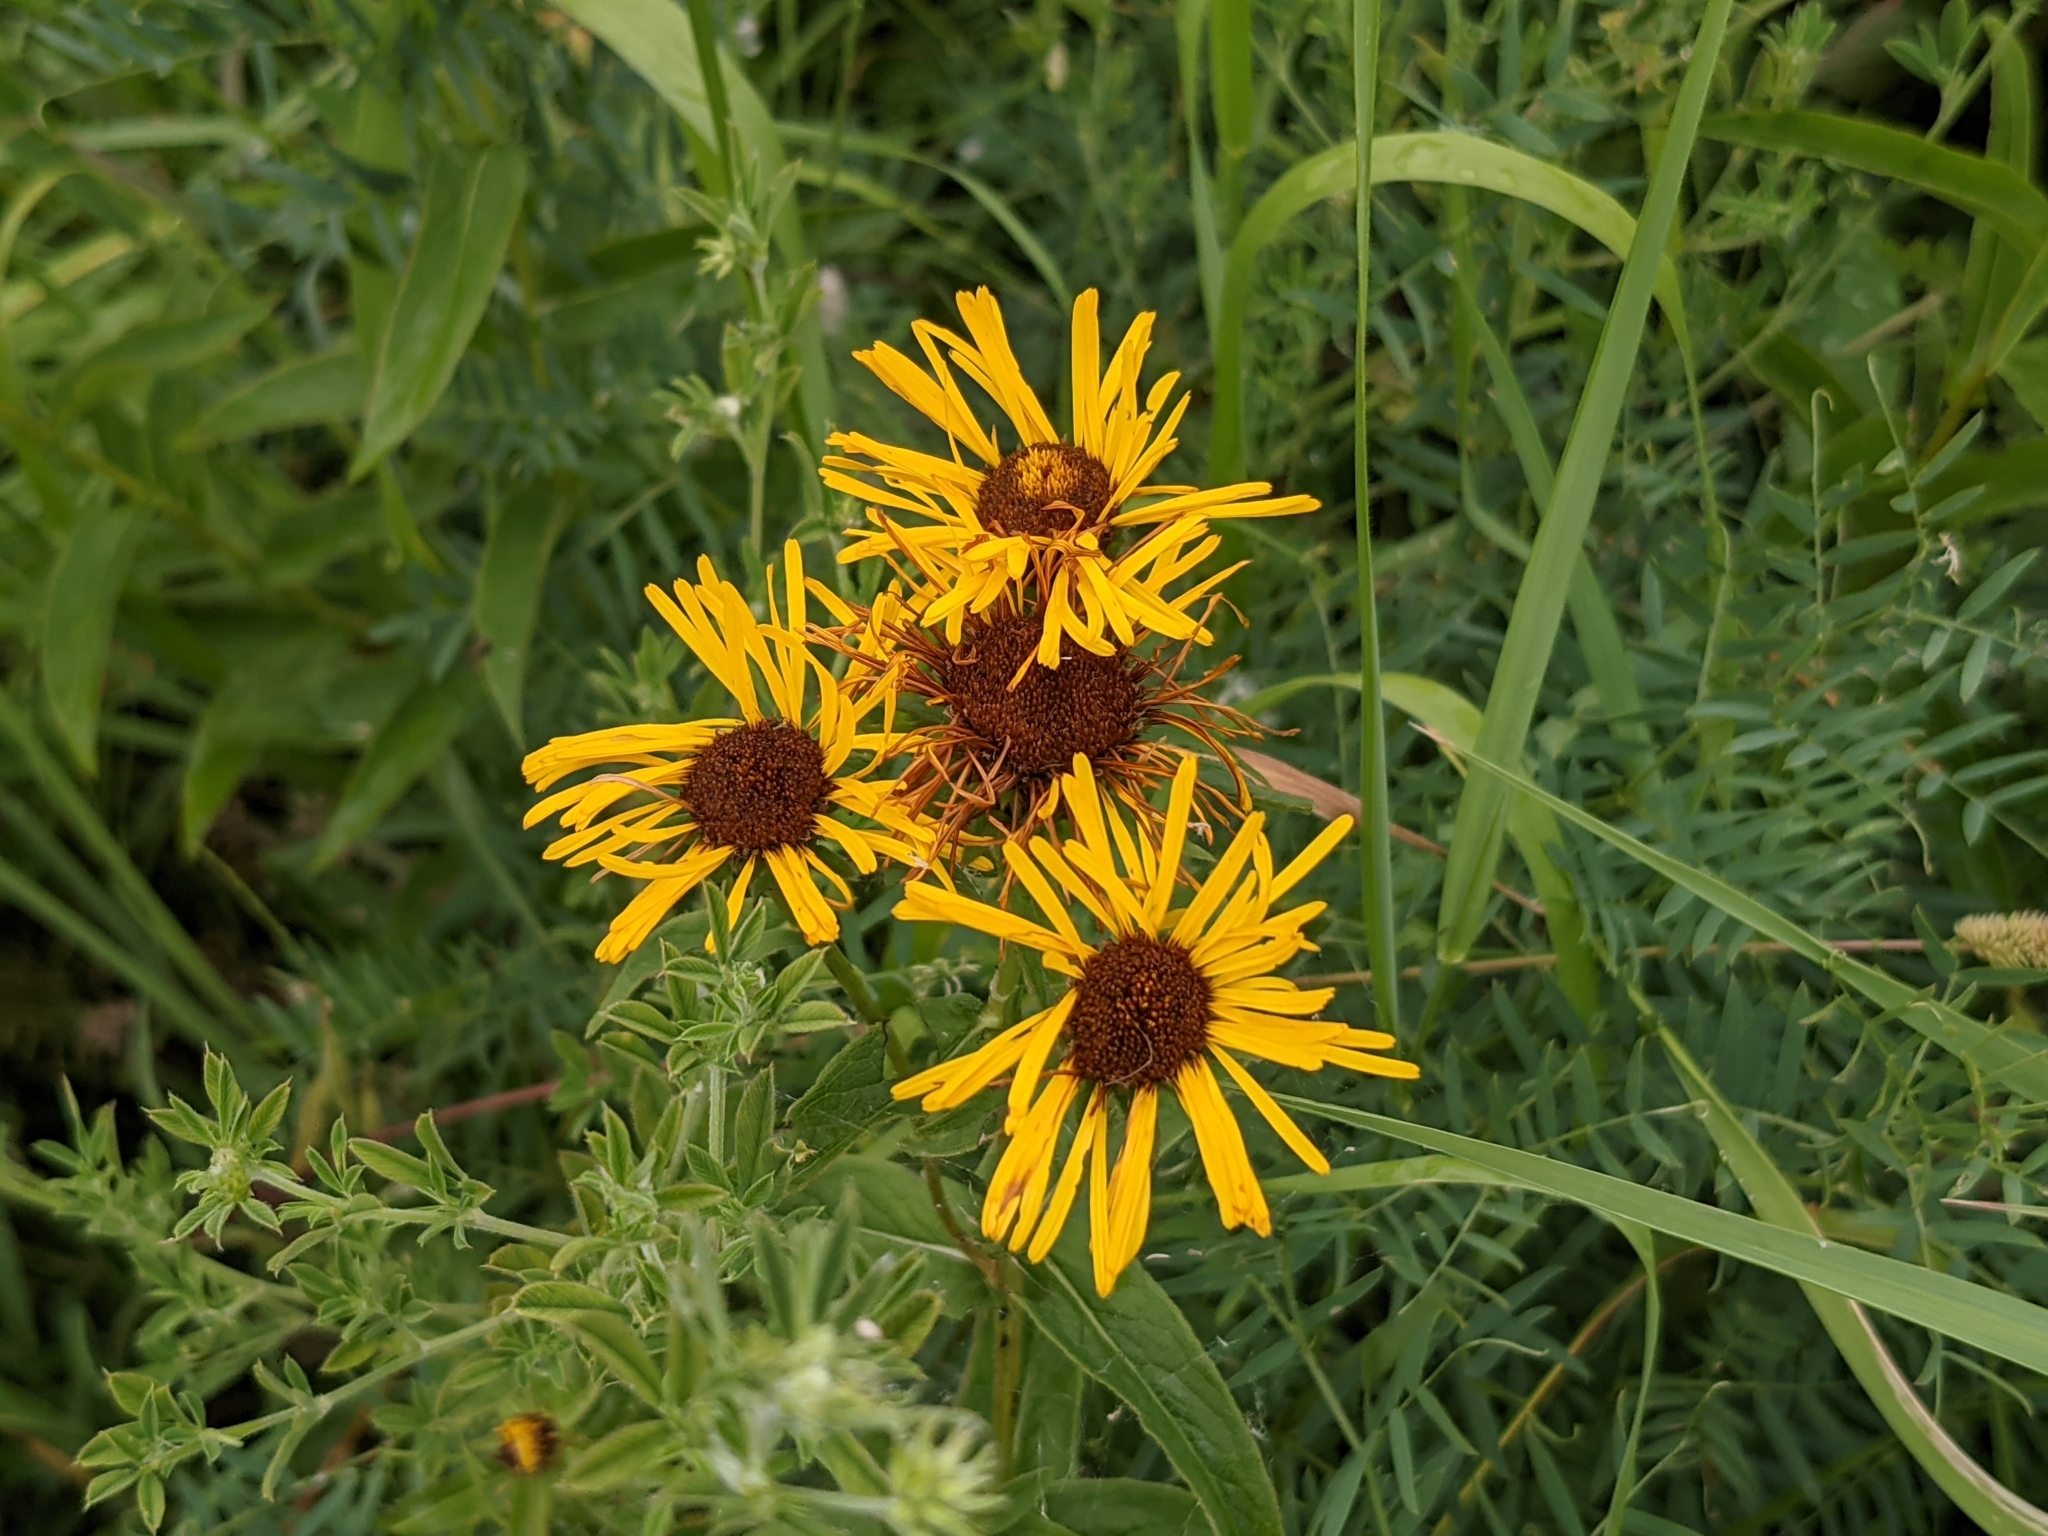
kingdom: Plantae
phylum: Tracheophyta
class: Magnoliopsida
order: Asterales
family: Asteraceae
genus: Pentanema
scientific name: Pentanema salicinum
